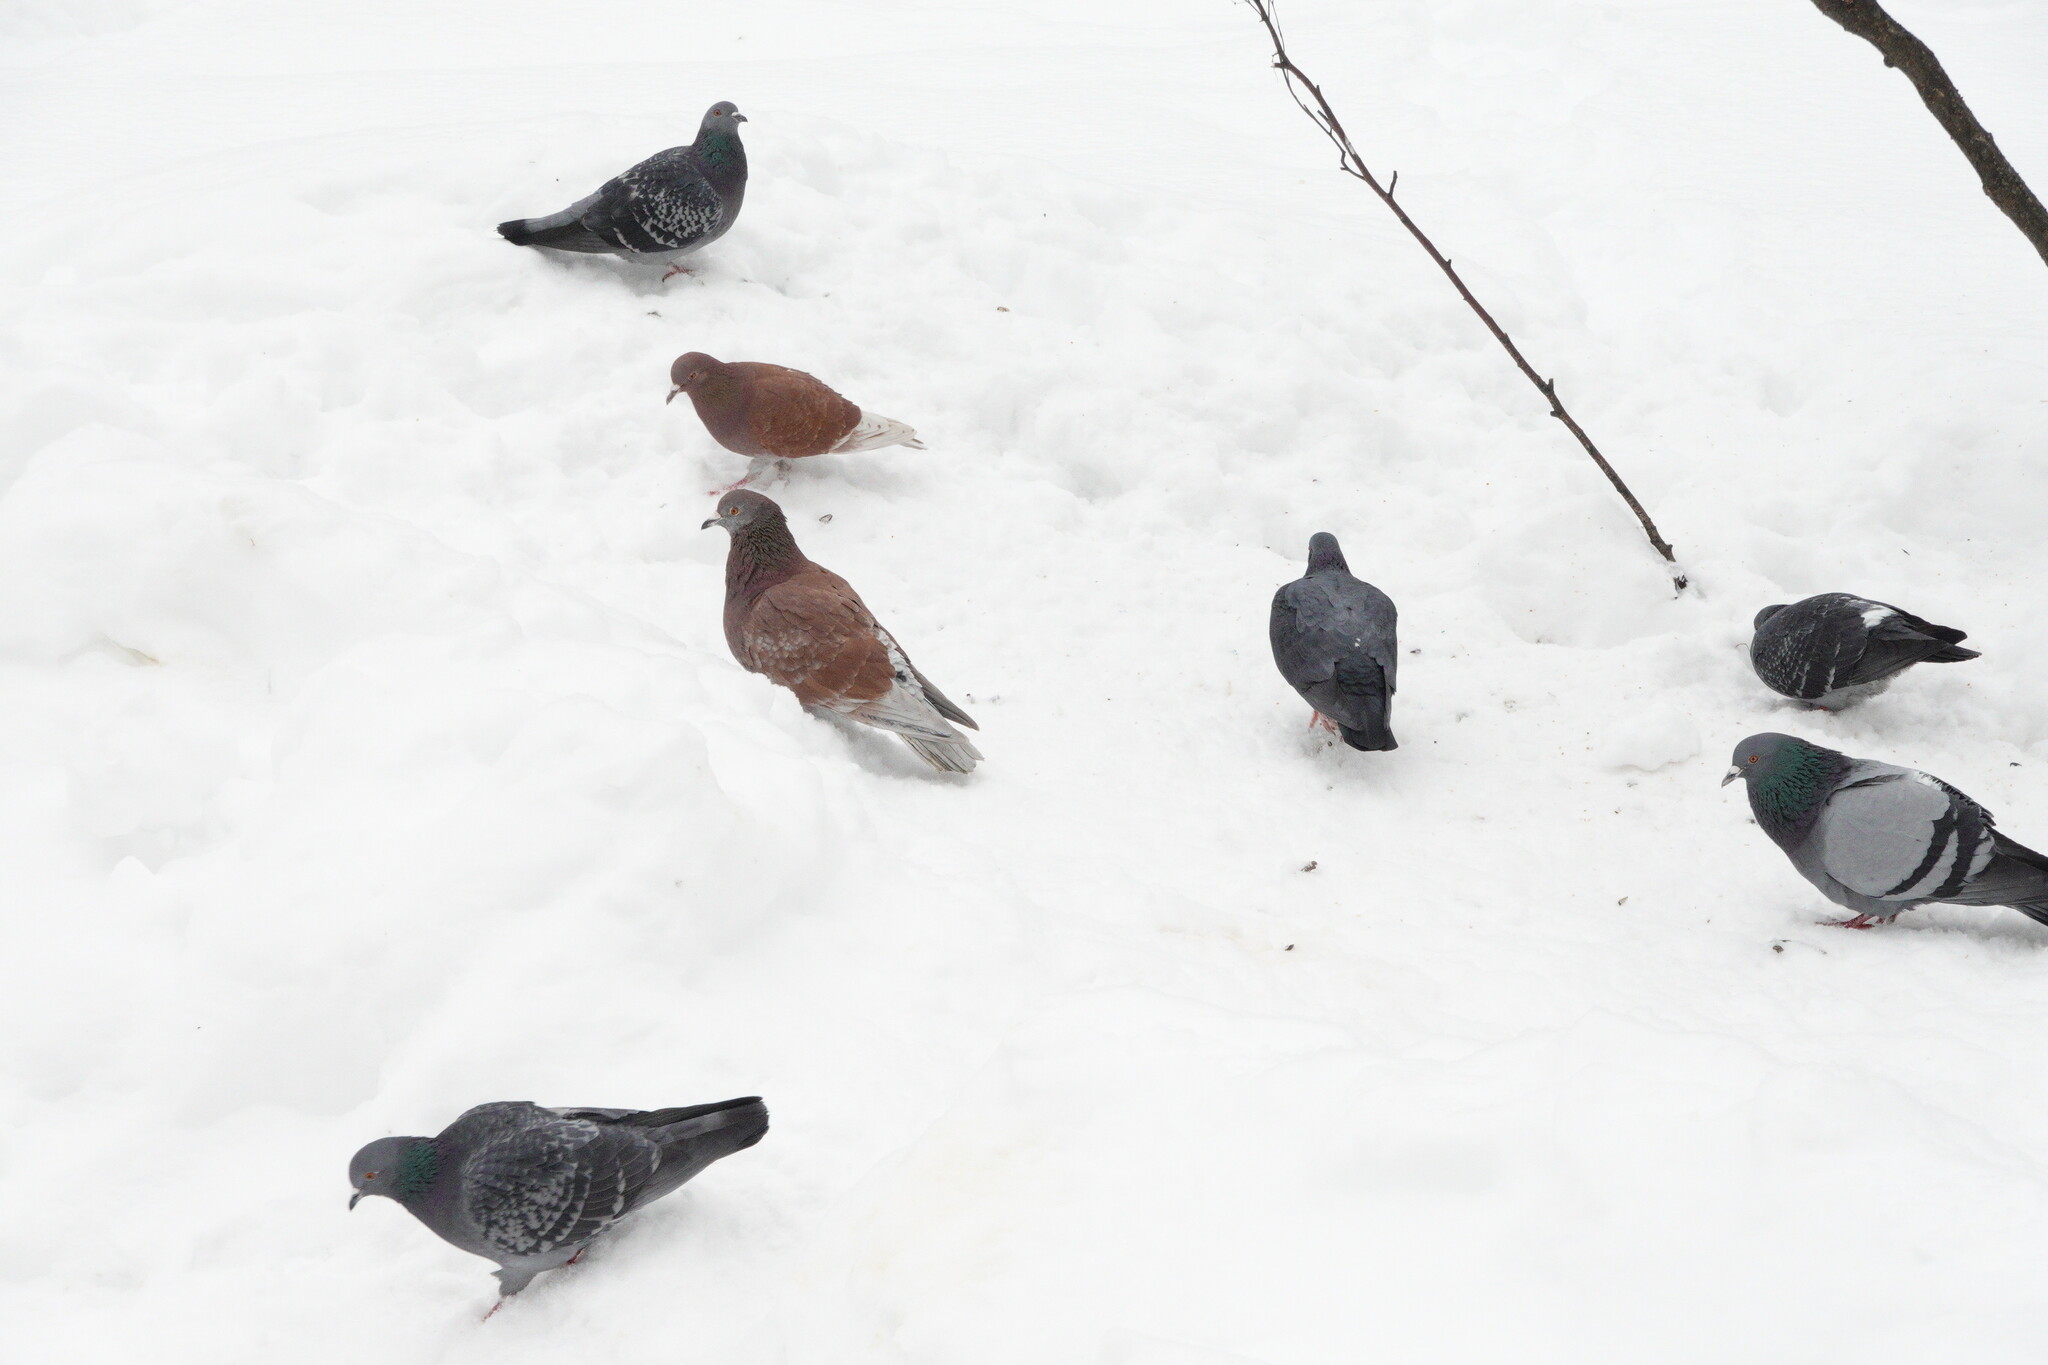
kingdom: Animalia
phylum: Chordata
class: Aves
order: Columbiformes
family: Columbidae
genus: Columba
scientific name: Columba livia
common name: Rock pigeon
